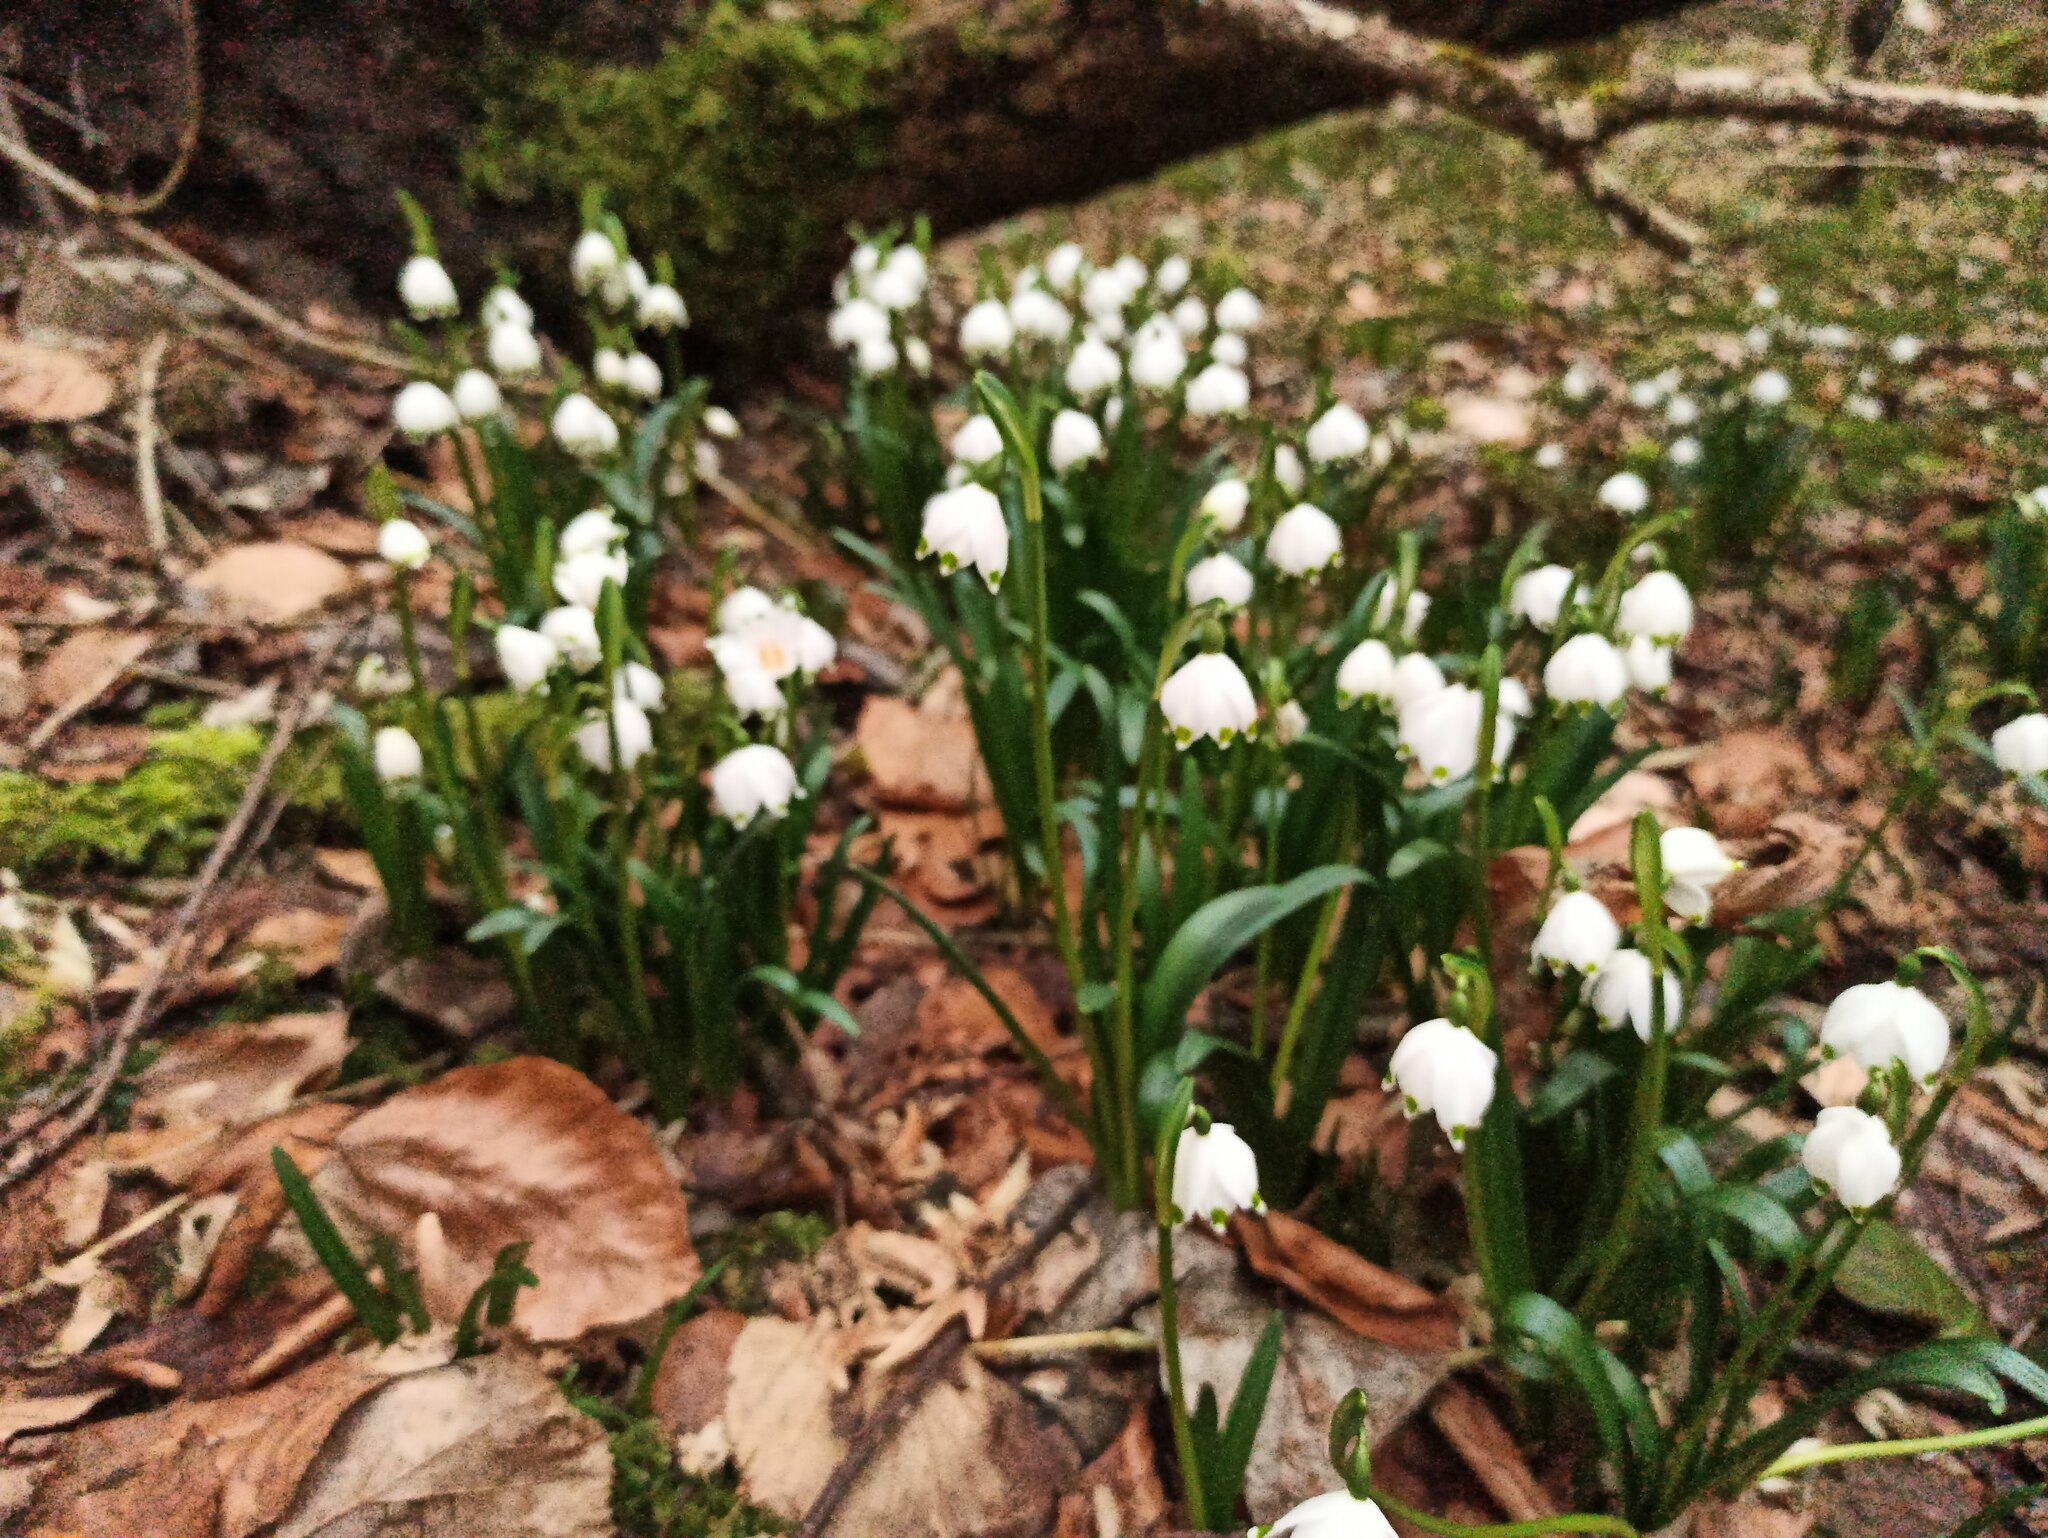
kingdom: Plantae
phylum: Tracheophyta
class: Liliopsida
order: Asparagales
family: Amaryllidaceae
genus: Leucojum
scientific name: Leucojum vernum
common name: Spring snowflake
